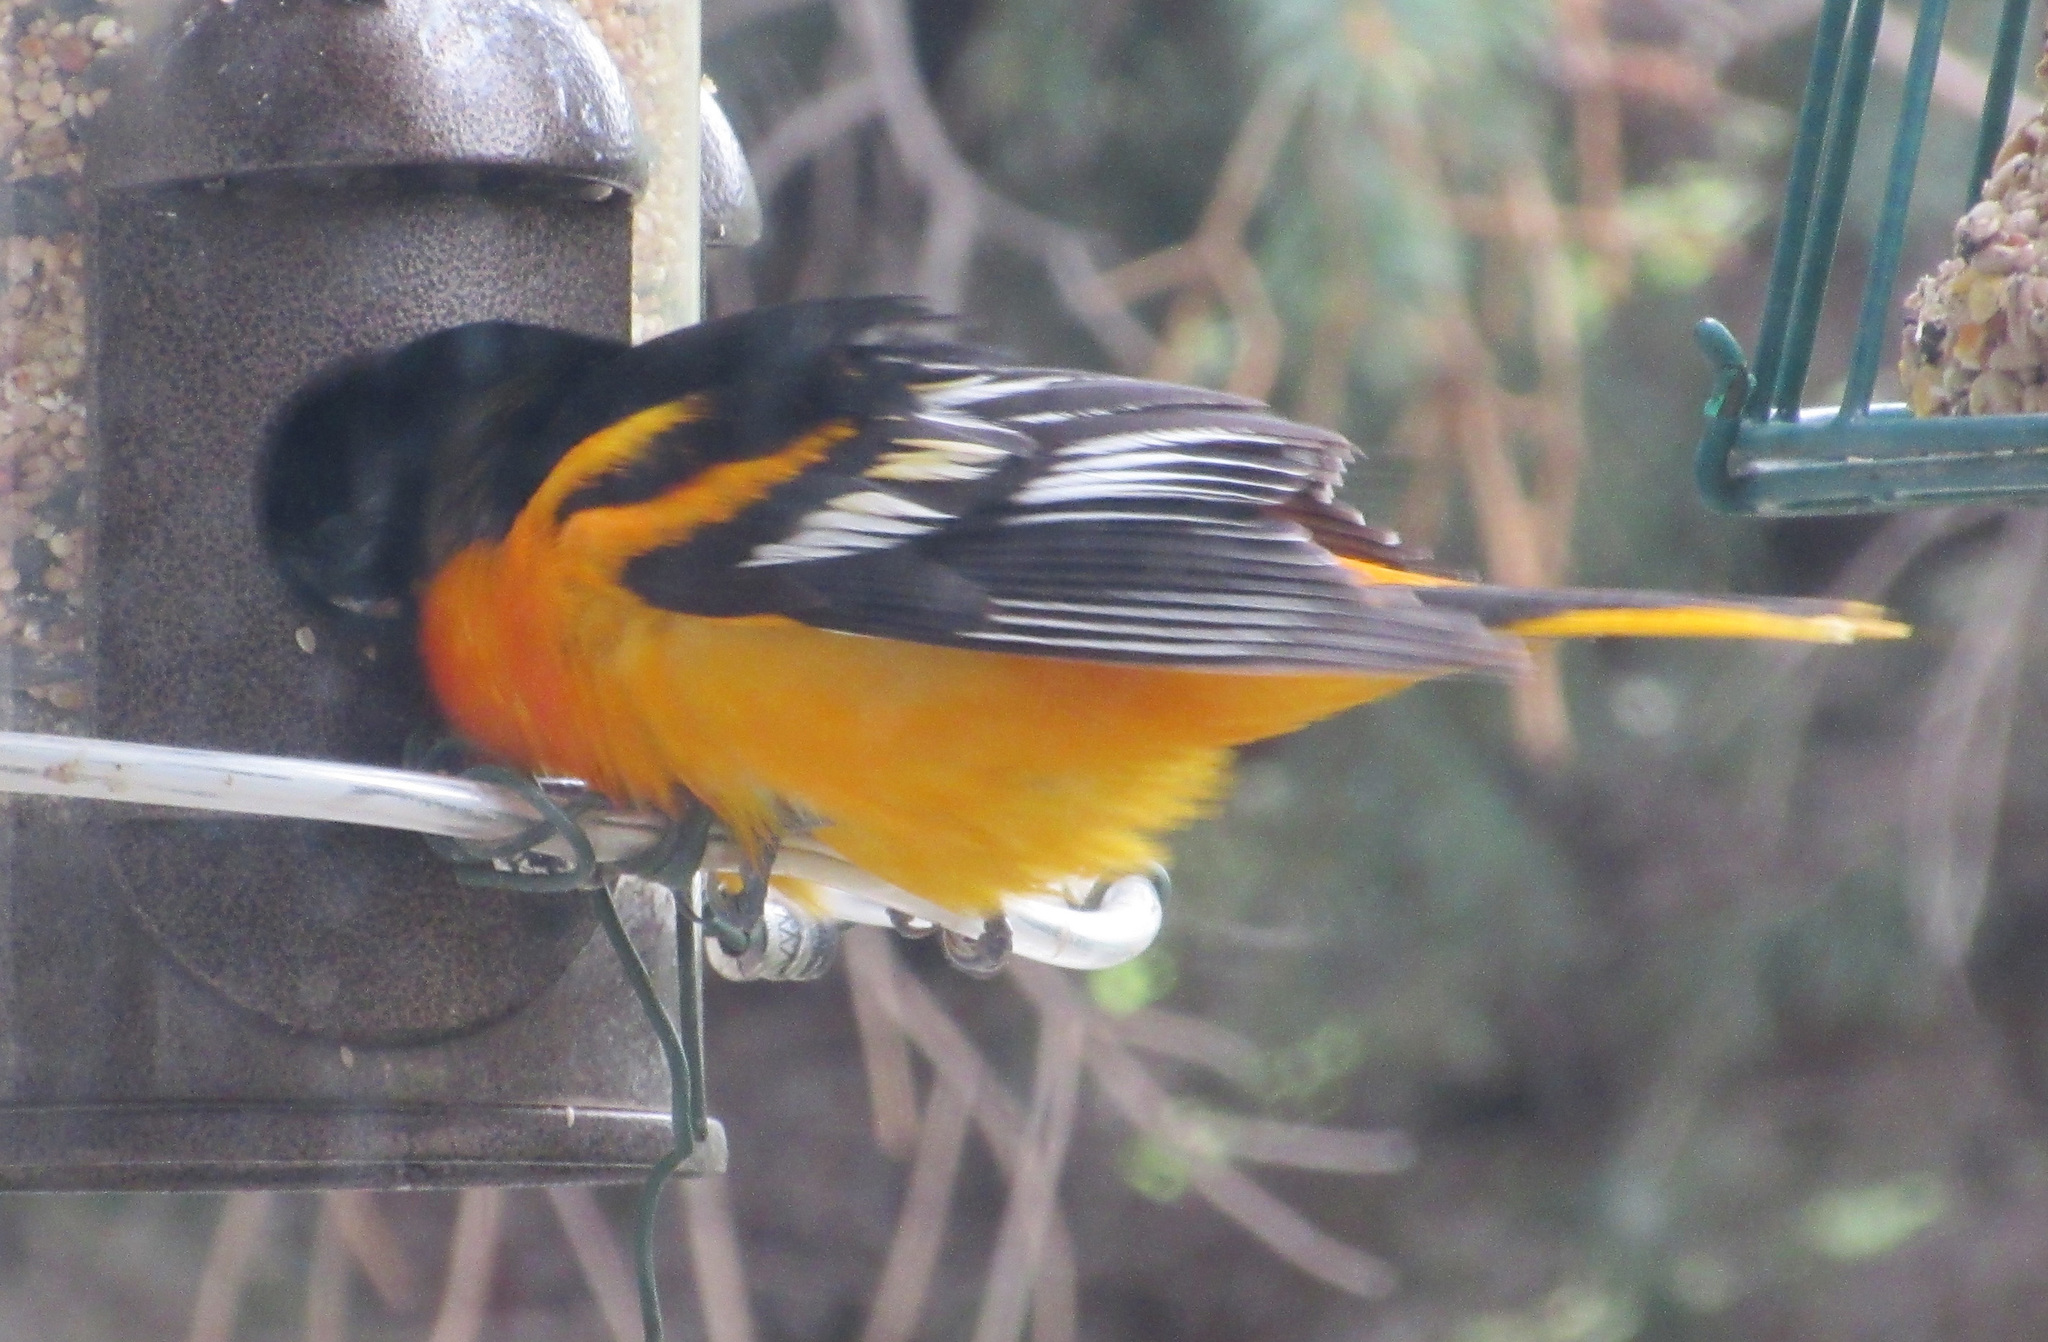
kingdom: Animalia
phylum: Chordata
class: Aves
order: Passeriformes
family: Icteridae
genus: Icterus
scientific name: Icterus galbula
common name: Baltimore oriole
